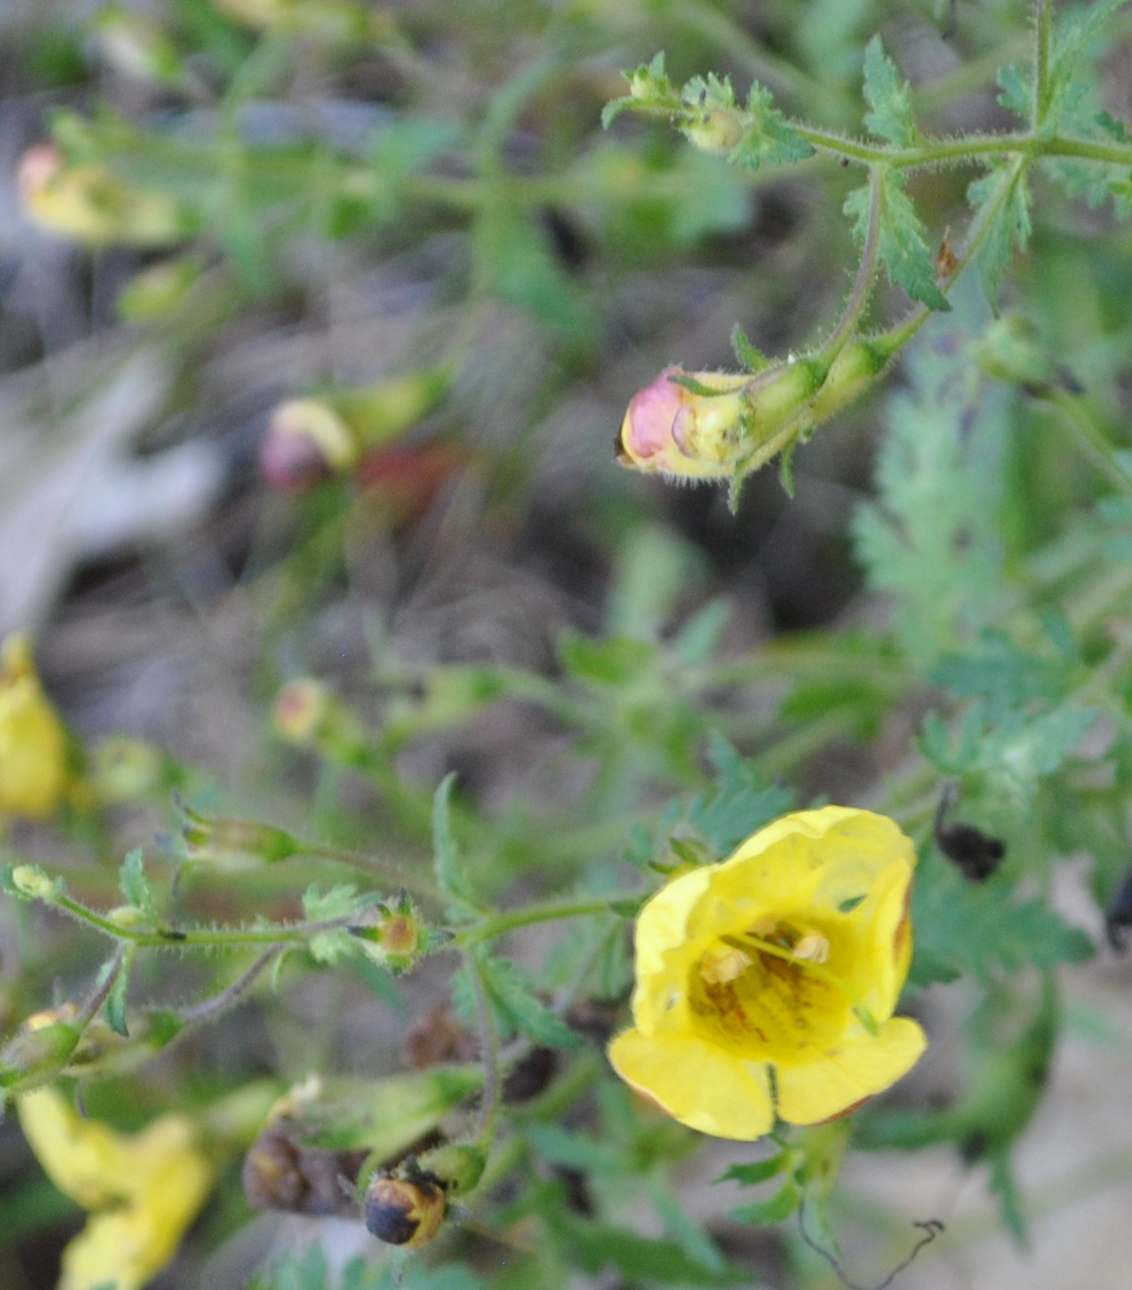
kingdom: Plantae
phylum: Tracheophyta
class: Magnoliopsida
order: Lamiales
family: Orobanchaceae
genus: Aureolaria
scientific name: Aureolaria pedicularia
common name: Annual false foxglove
